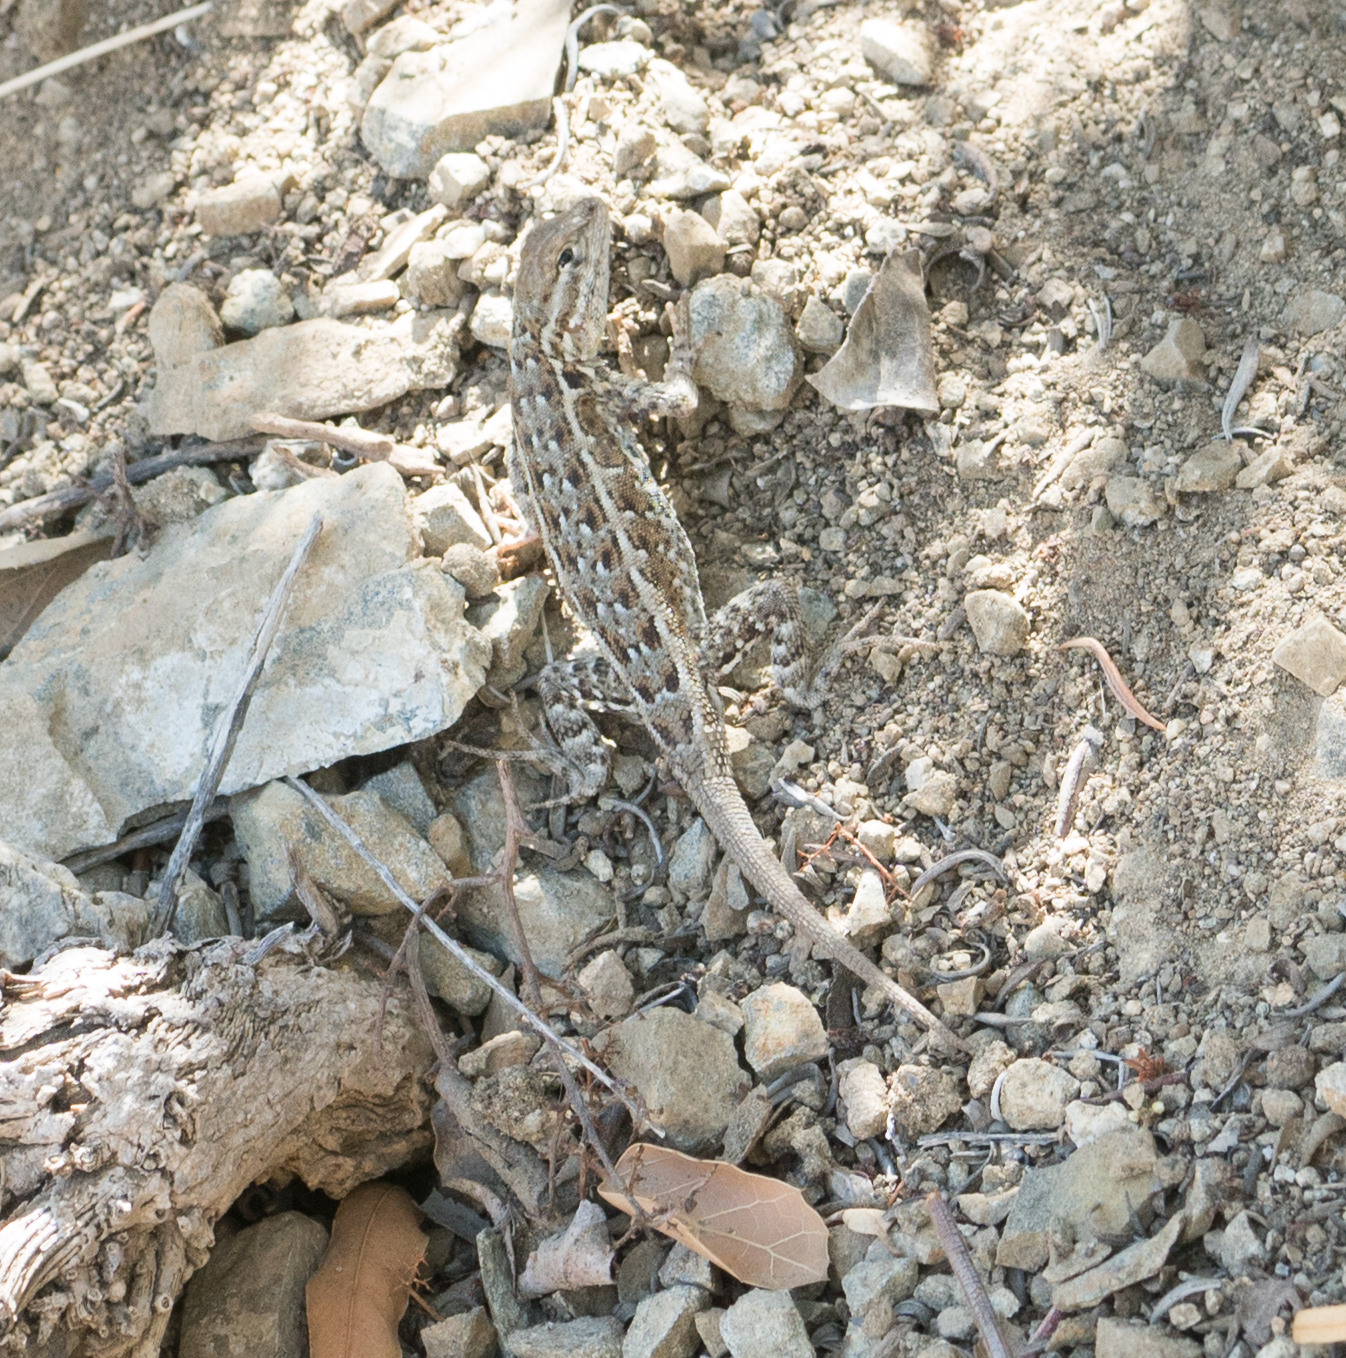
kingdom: Animalia
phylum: Chordata
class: Squamata
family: Phrynosomatidae
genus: Uta
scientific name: Uta stansburiana
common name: Side-blotched lizard
